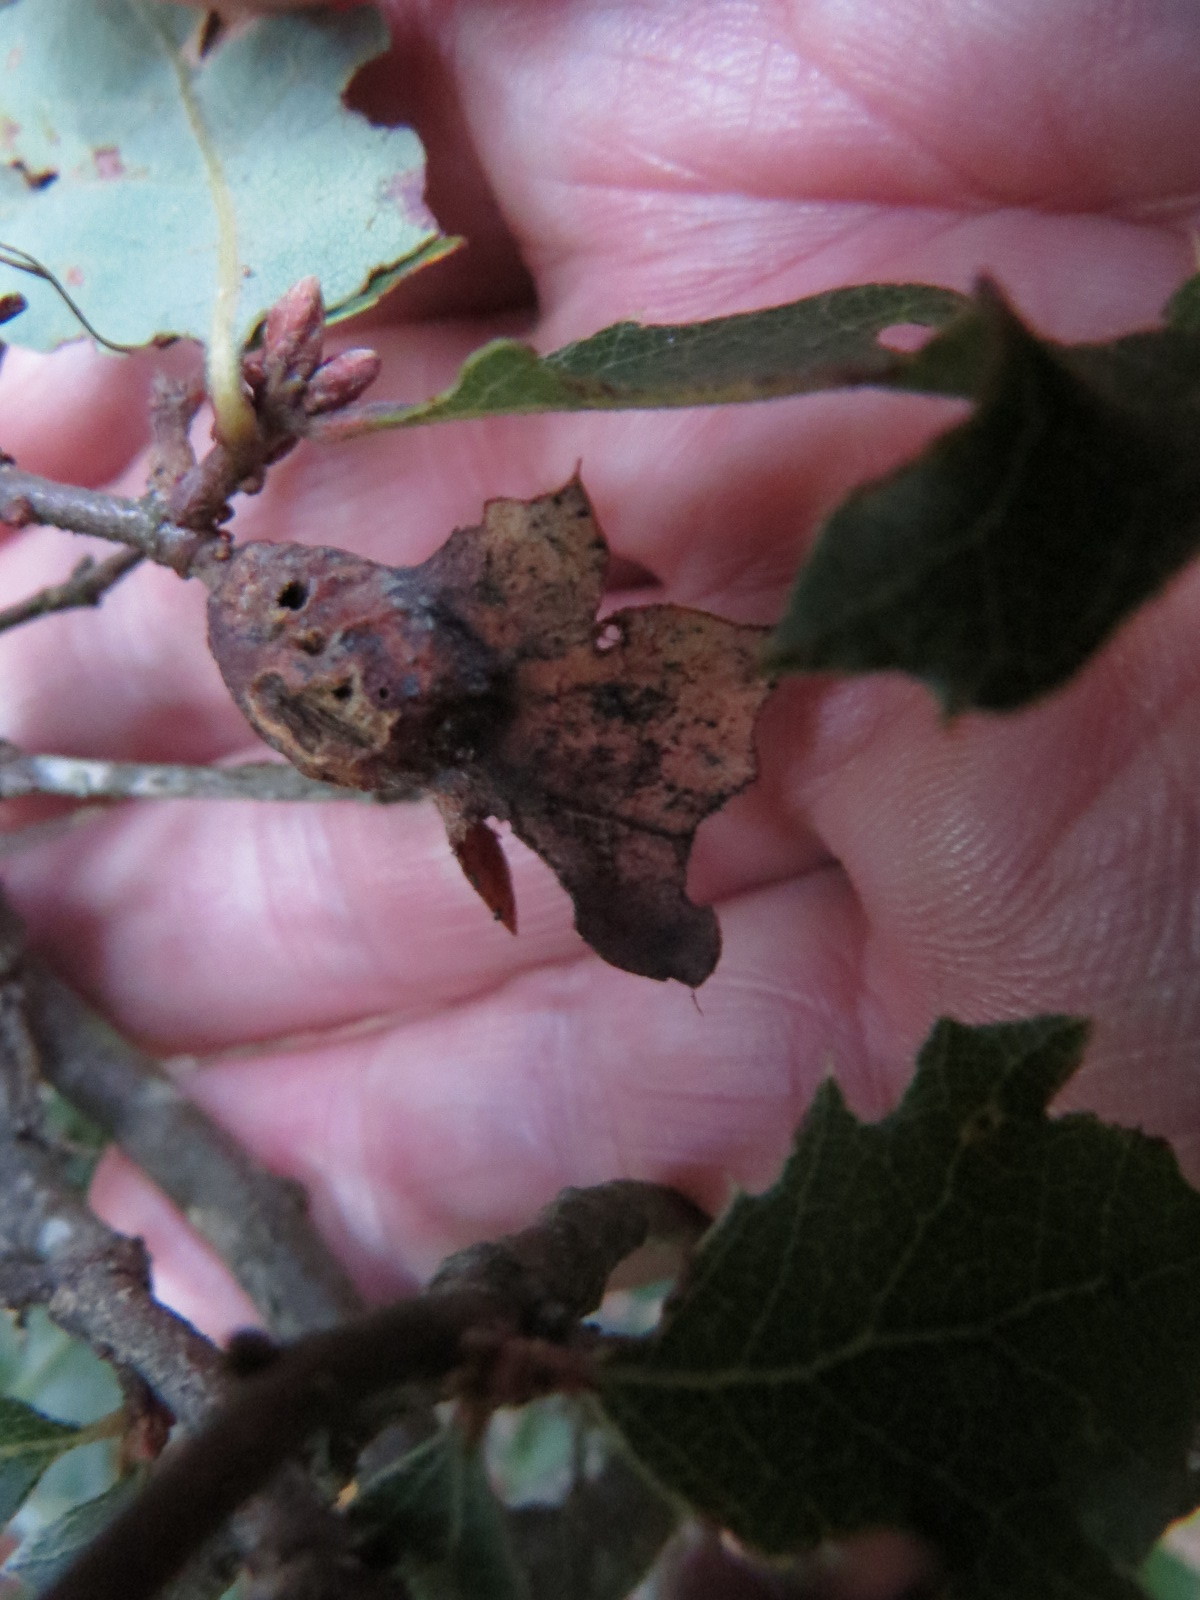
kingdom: Animalia
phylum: Arthropoda
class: Insecta
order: Hymenoptera
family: Cynipidae
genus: Neuroterus
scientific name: Neuroterus
